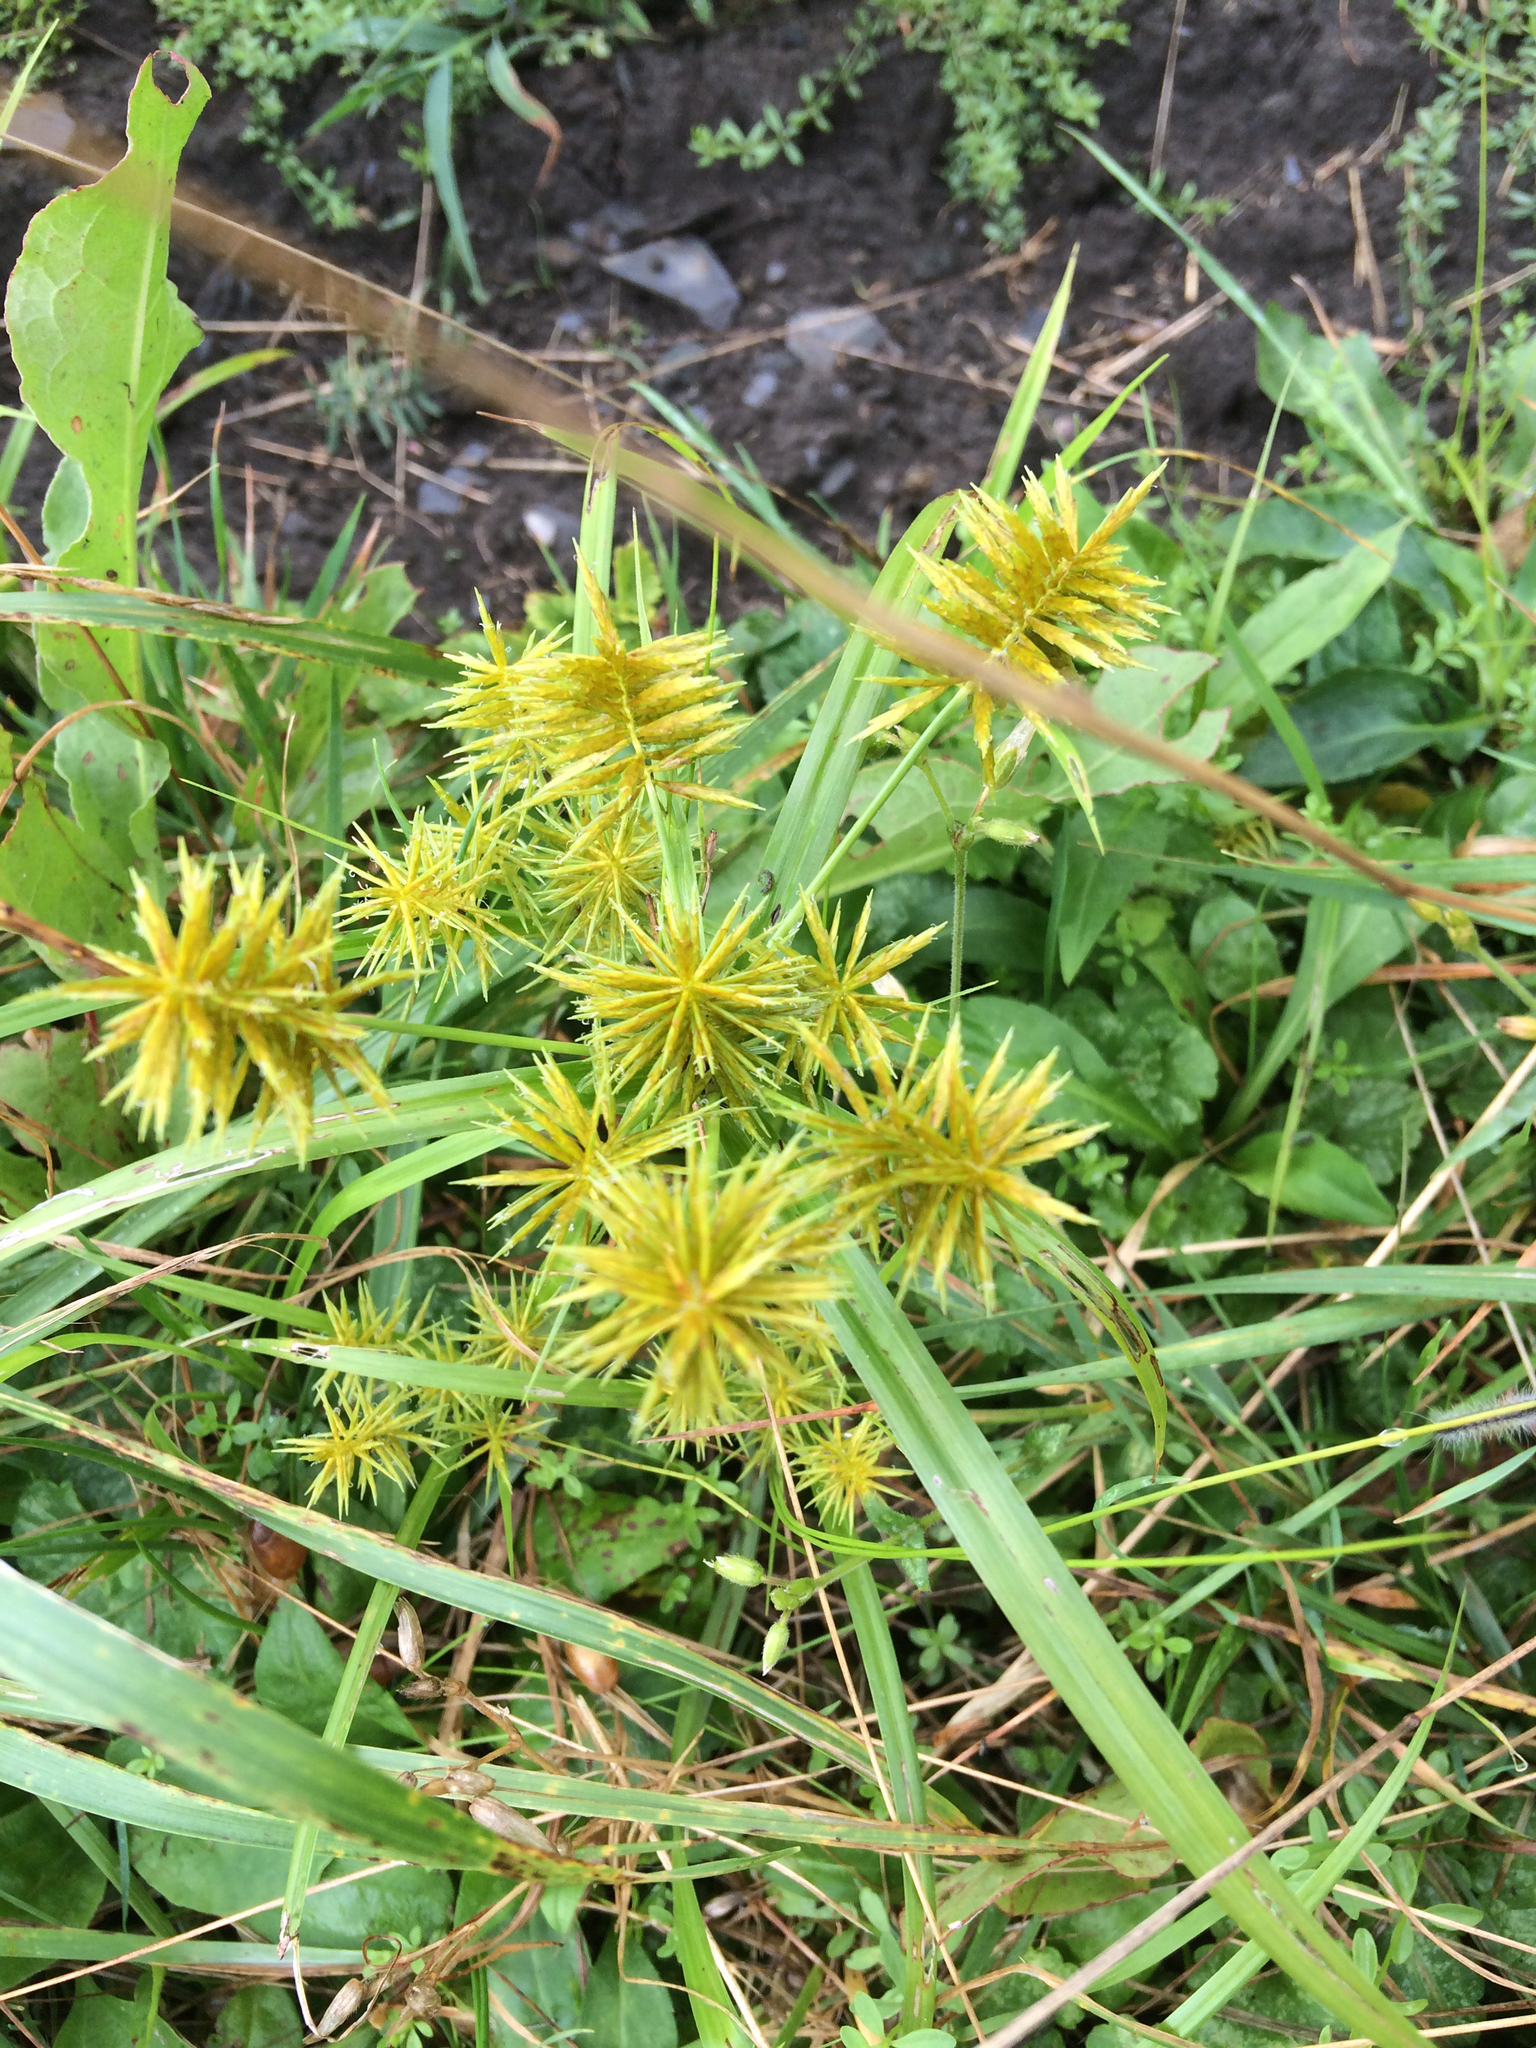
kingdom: Plantae
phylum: Tracheophyta
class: Liliopsida
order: Poales
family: Cyperaceae
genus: Cyperus
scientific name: Cyperus strigosus
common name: False nutsedge
